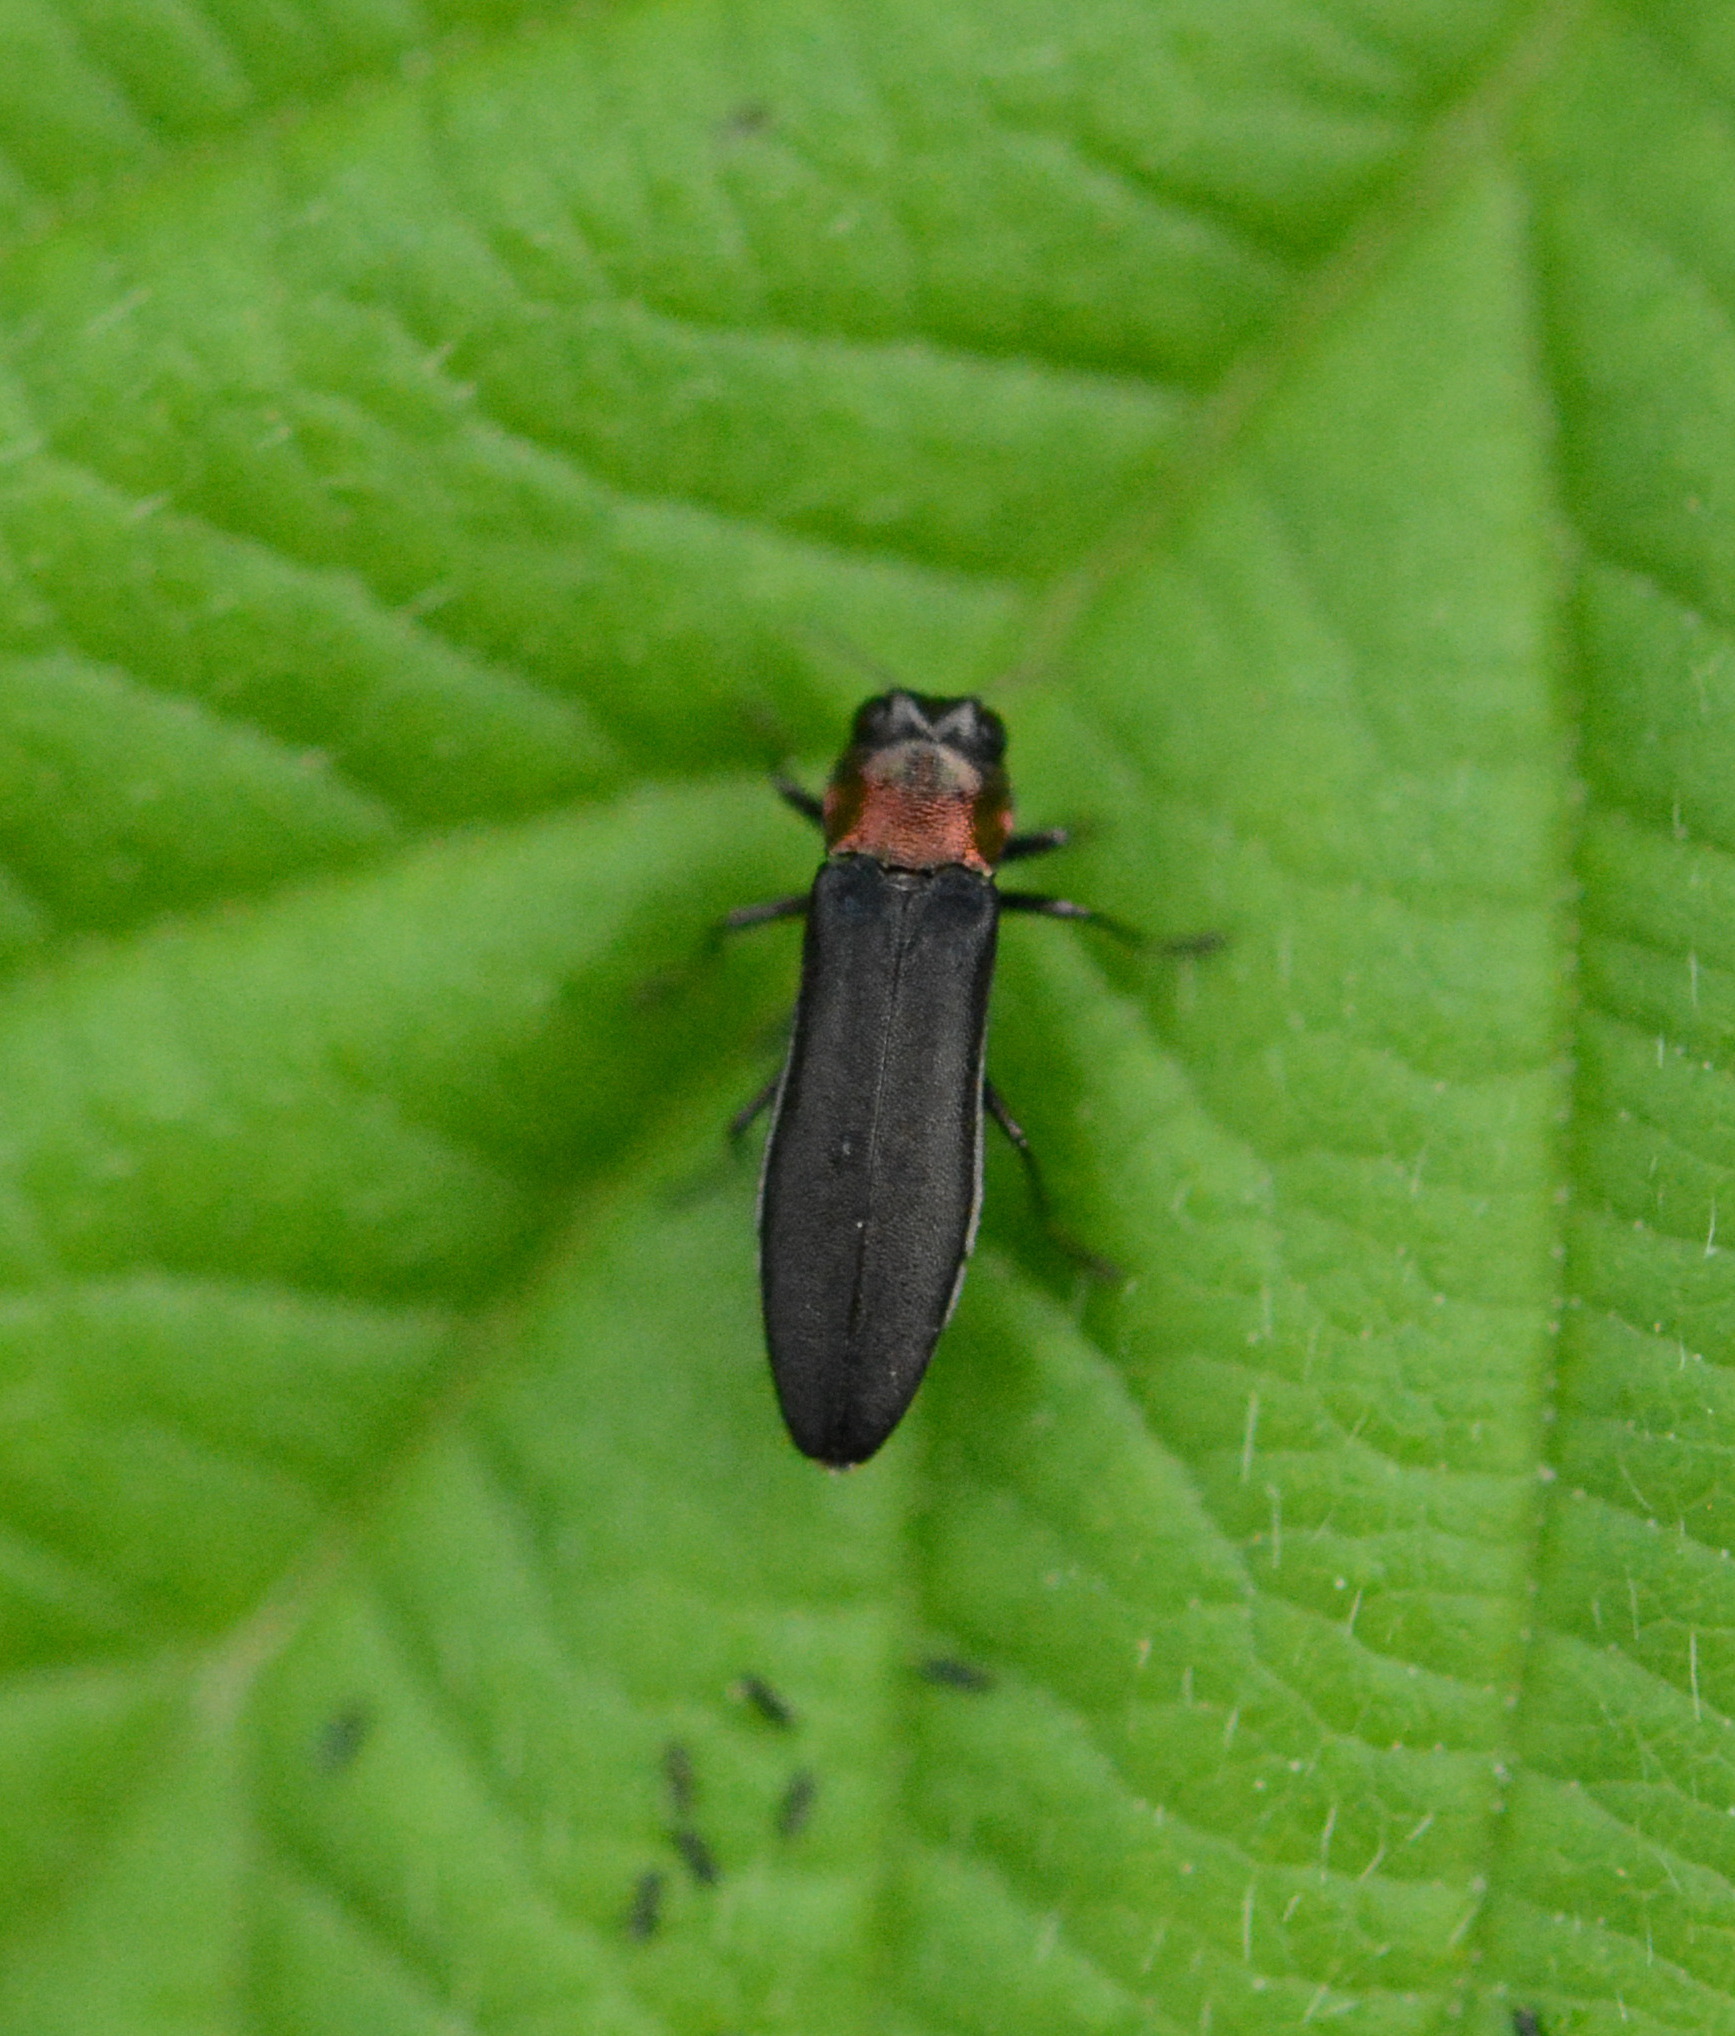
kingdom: Animalia
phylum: Arthropoda
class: Insecta
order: Coleoptera
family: Buprestidae
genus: Agrilus
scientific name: Agrilus ruficollis
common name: Red-necked cane borer beetle
